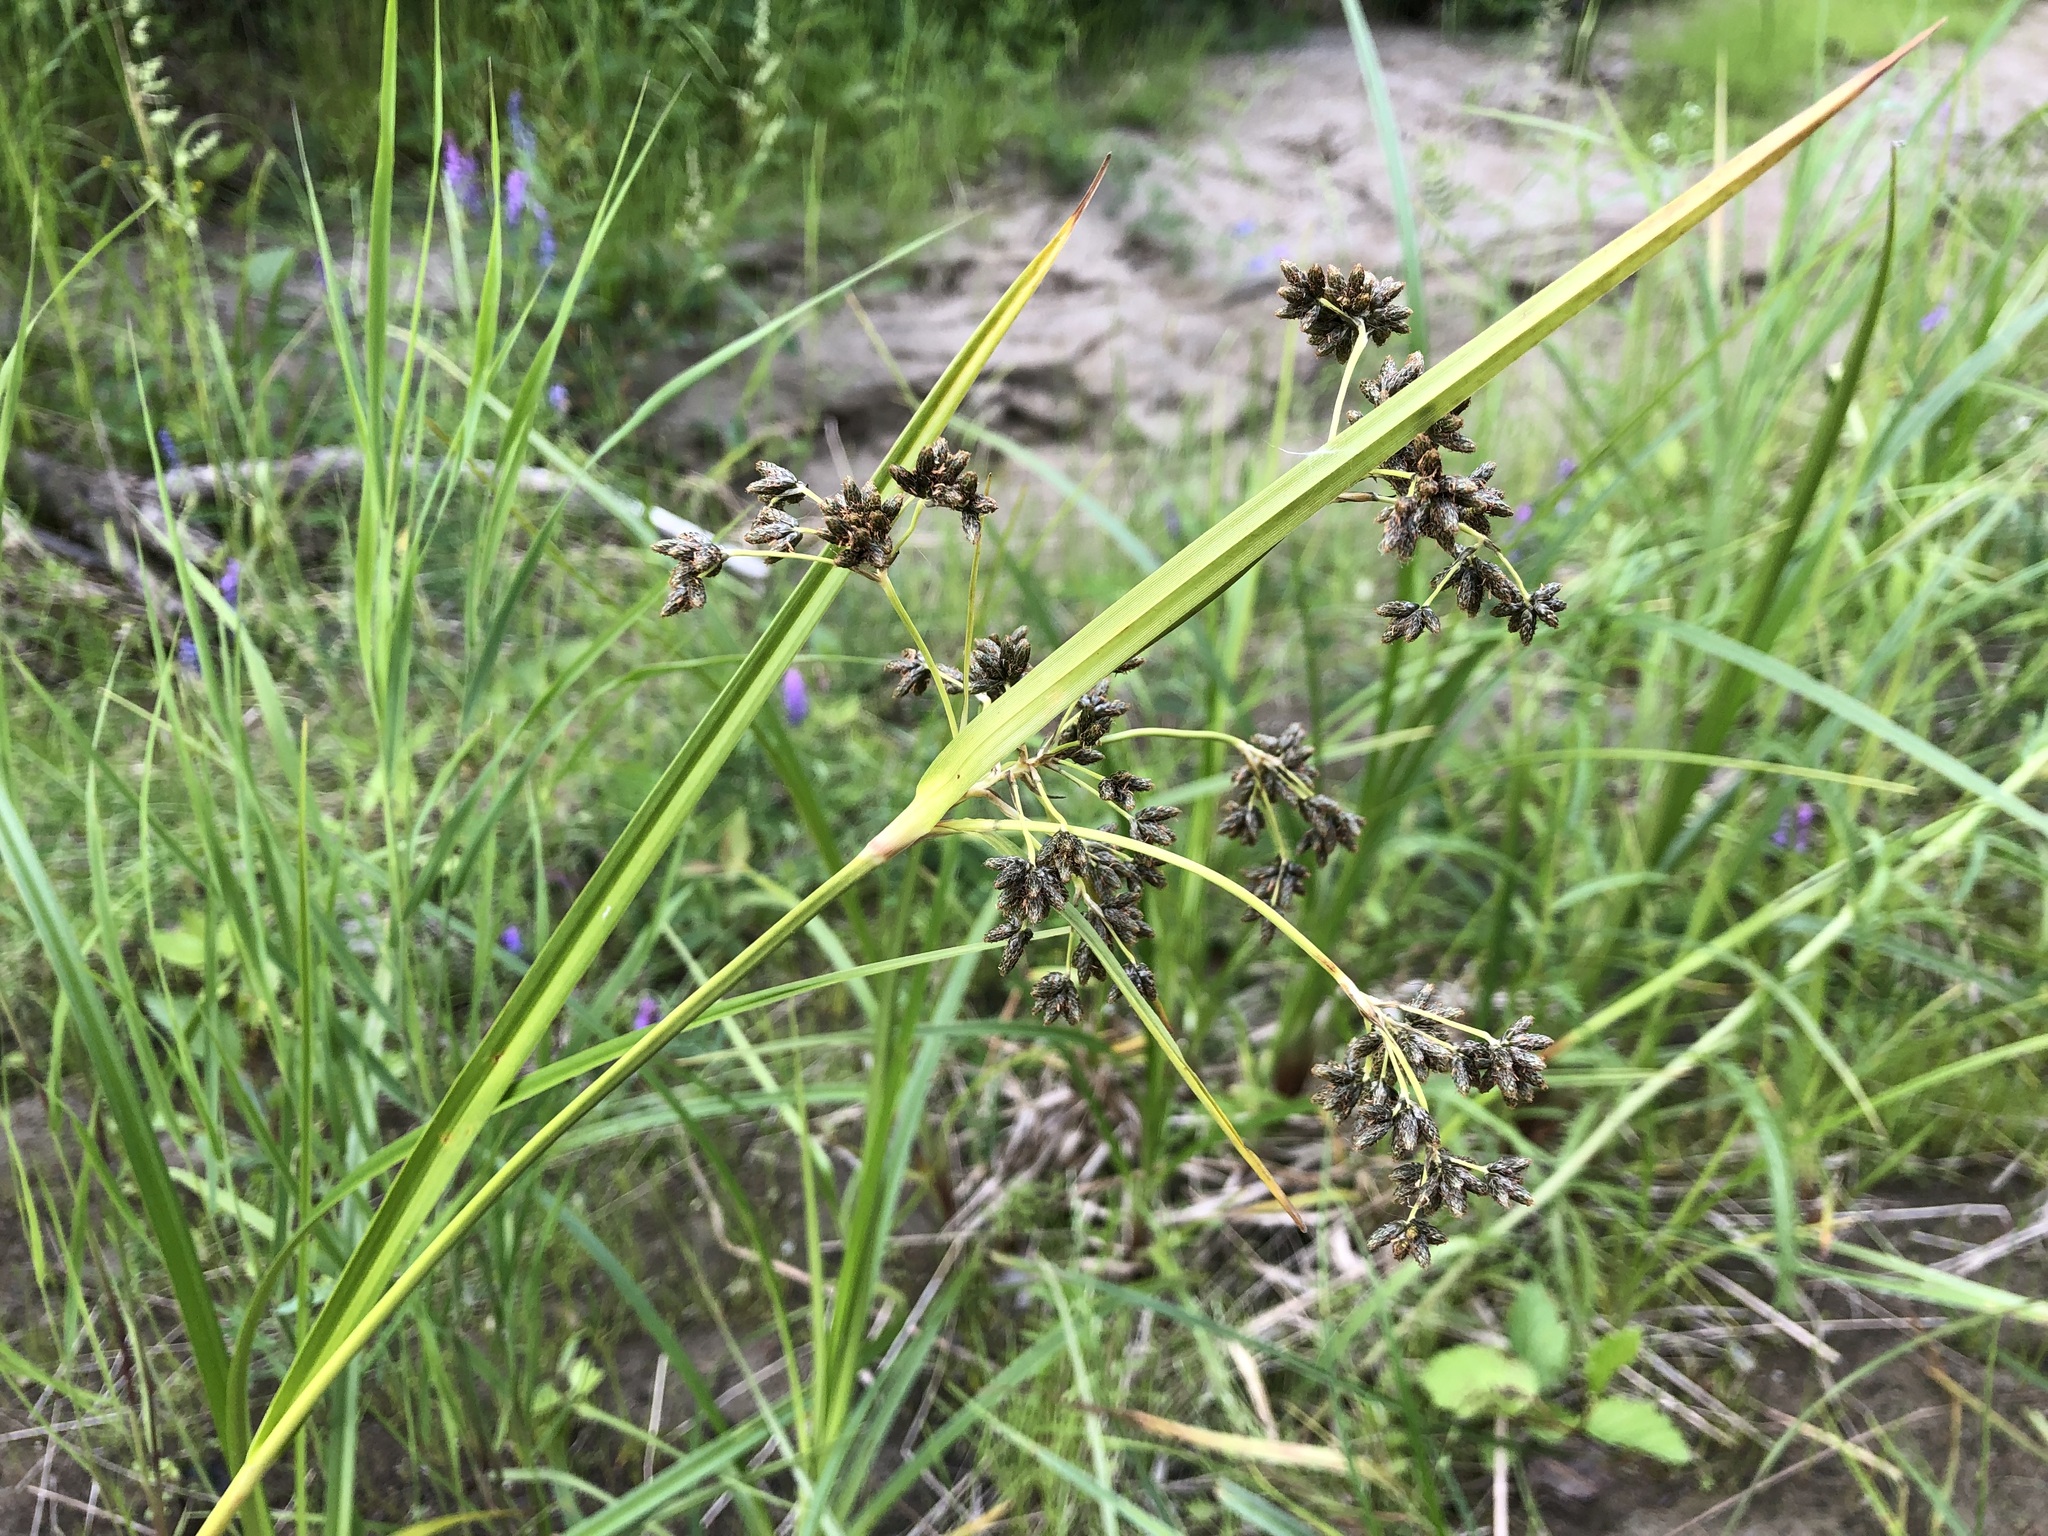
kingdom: Plantae
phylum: Tracheophyta
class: Liliopsida
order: Poales
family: Cyperaceae
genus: Scirpus
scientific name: Scirpus microcarpus
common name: Panicled bulrush
